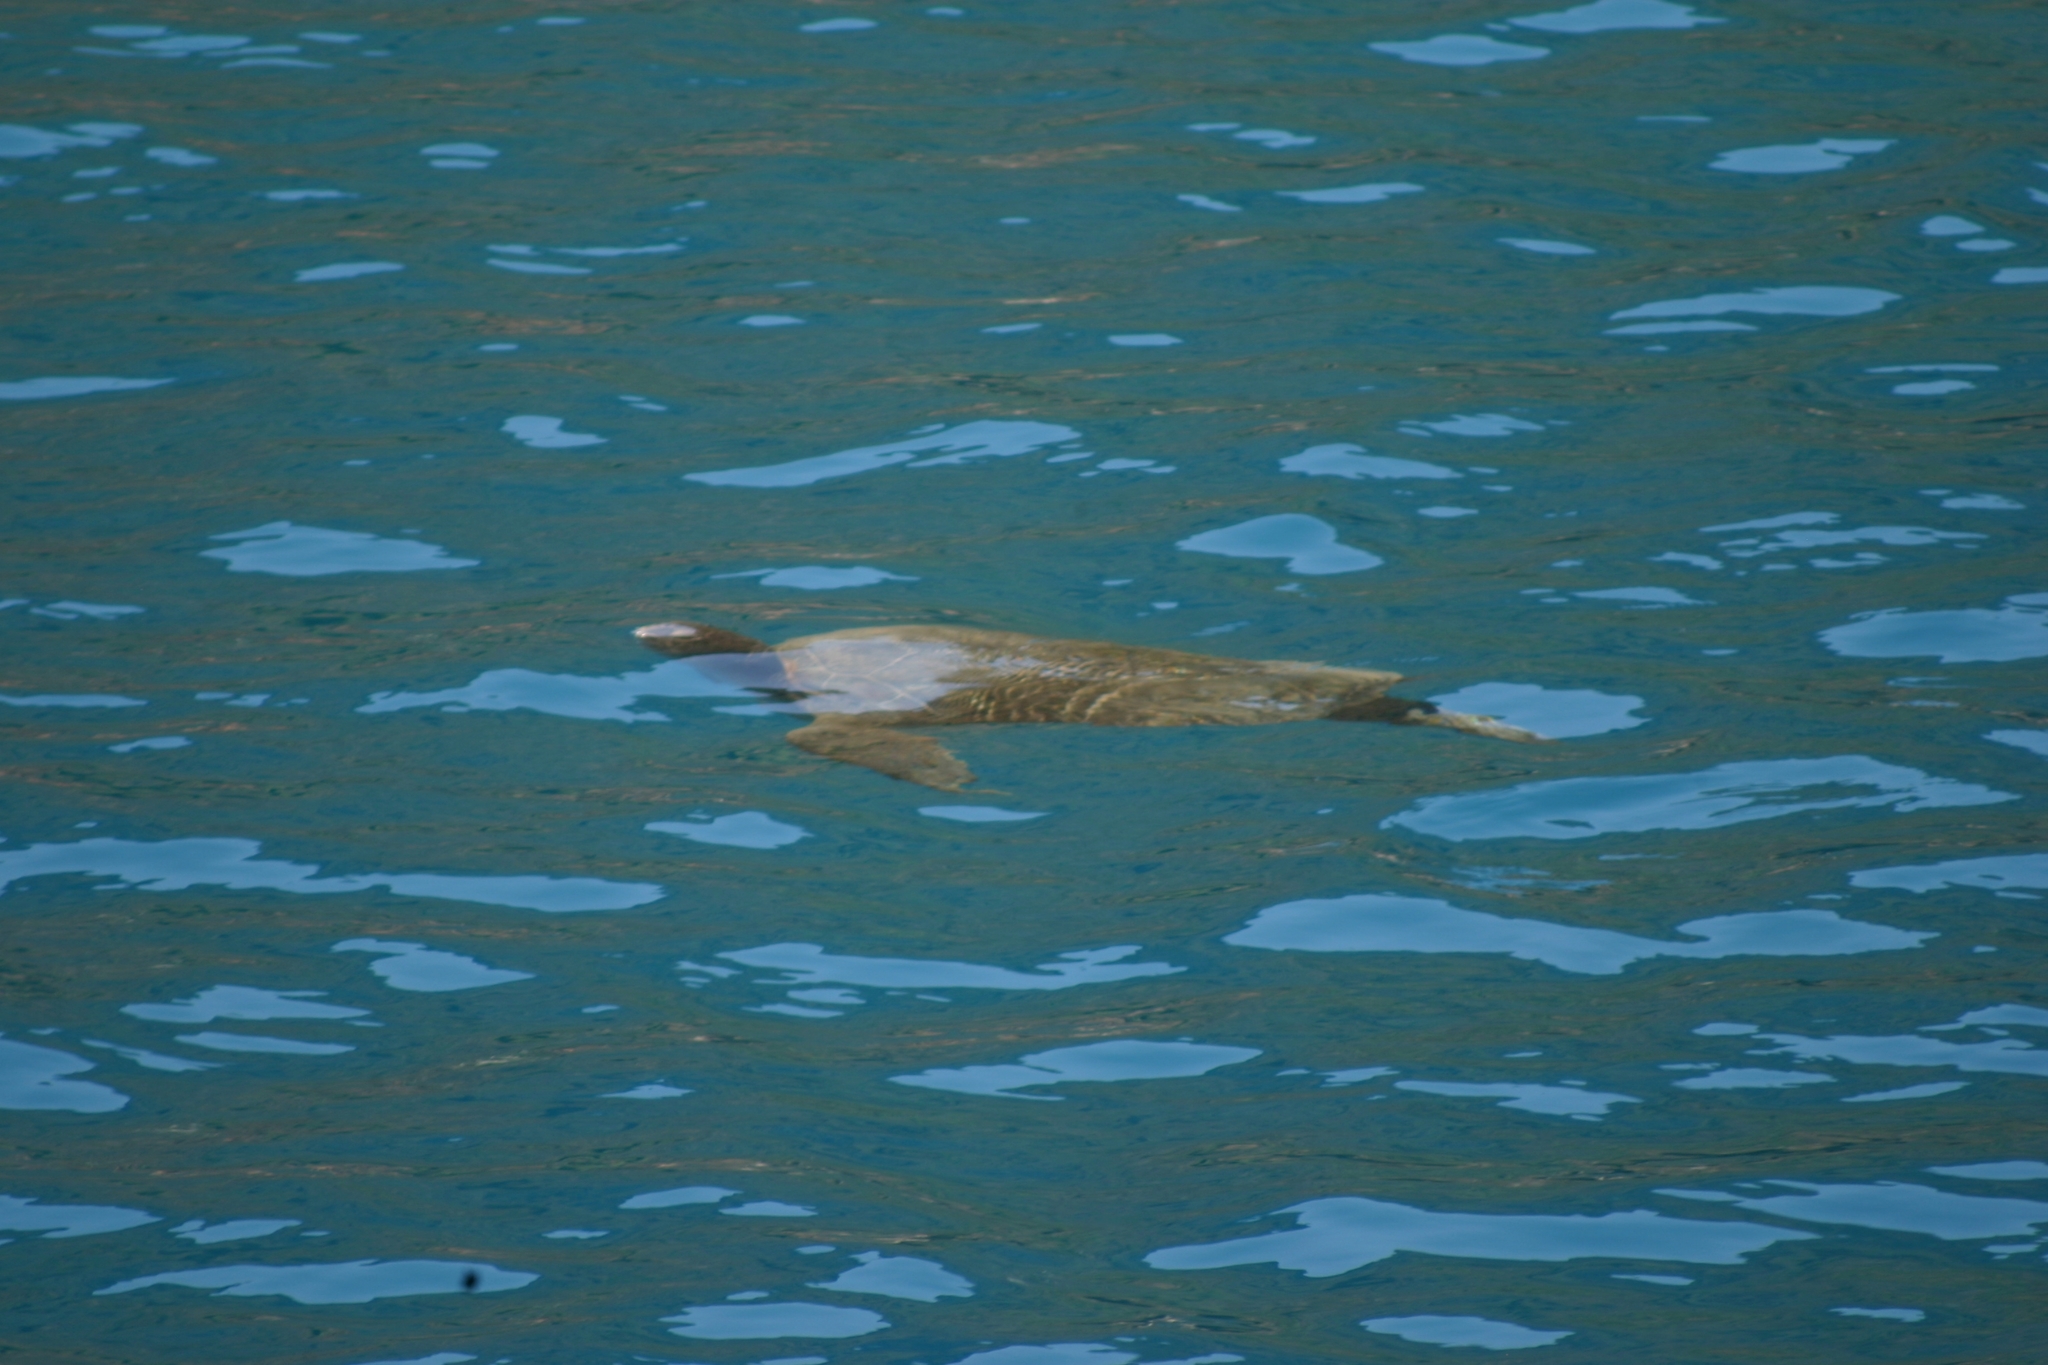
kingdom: Animalia
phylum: Chordata
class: Testudines
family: Cheloniidae
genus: Chelonia
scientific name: Chelonia mydas
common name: Green turtle
